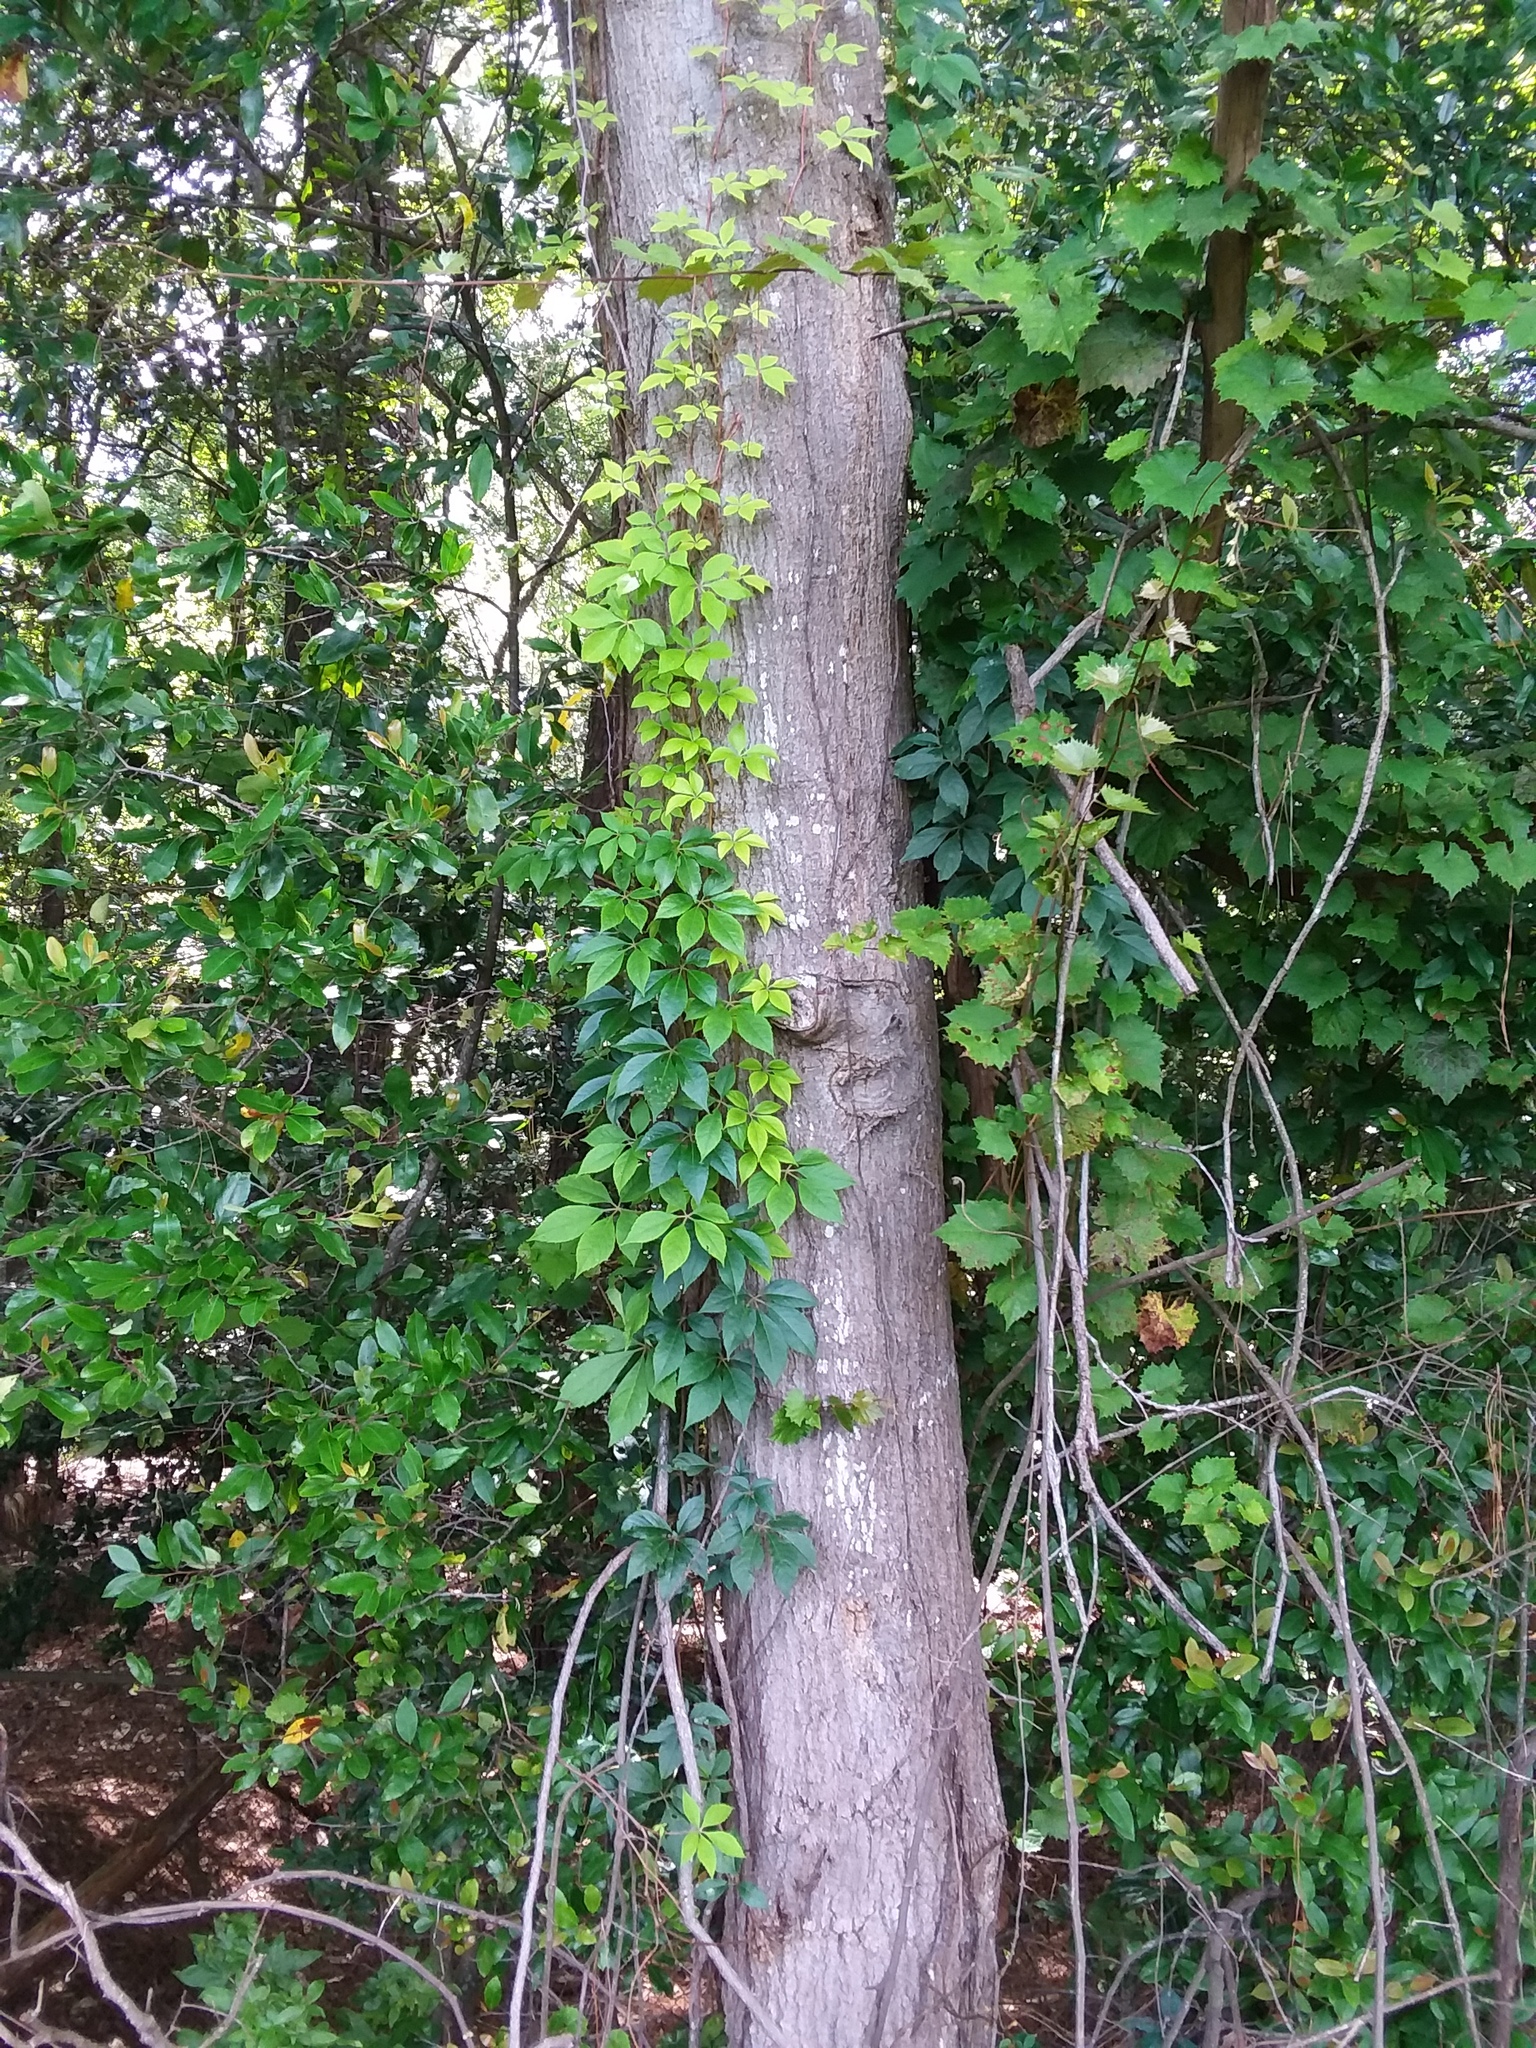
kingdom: Plantae
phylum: Tracheophyta
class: Magnoliopsida
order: Vitales
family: Vitaceae
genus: Parthenocissus
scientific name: Parthenocissus quinquefolia
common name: Virginia-creeper
